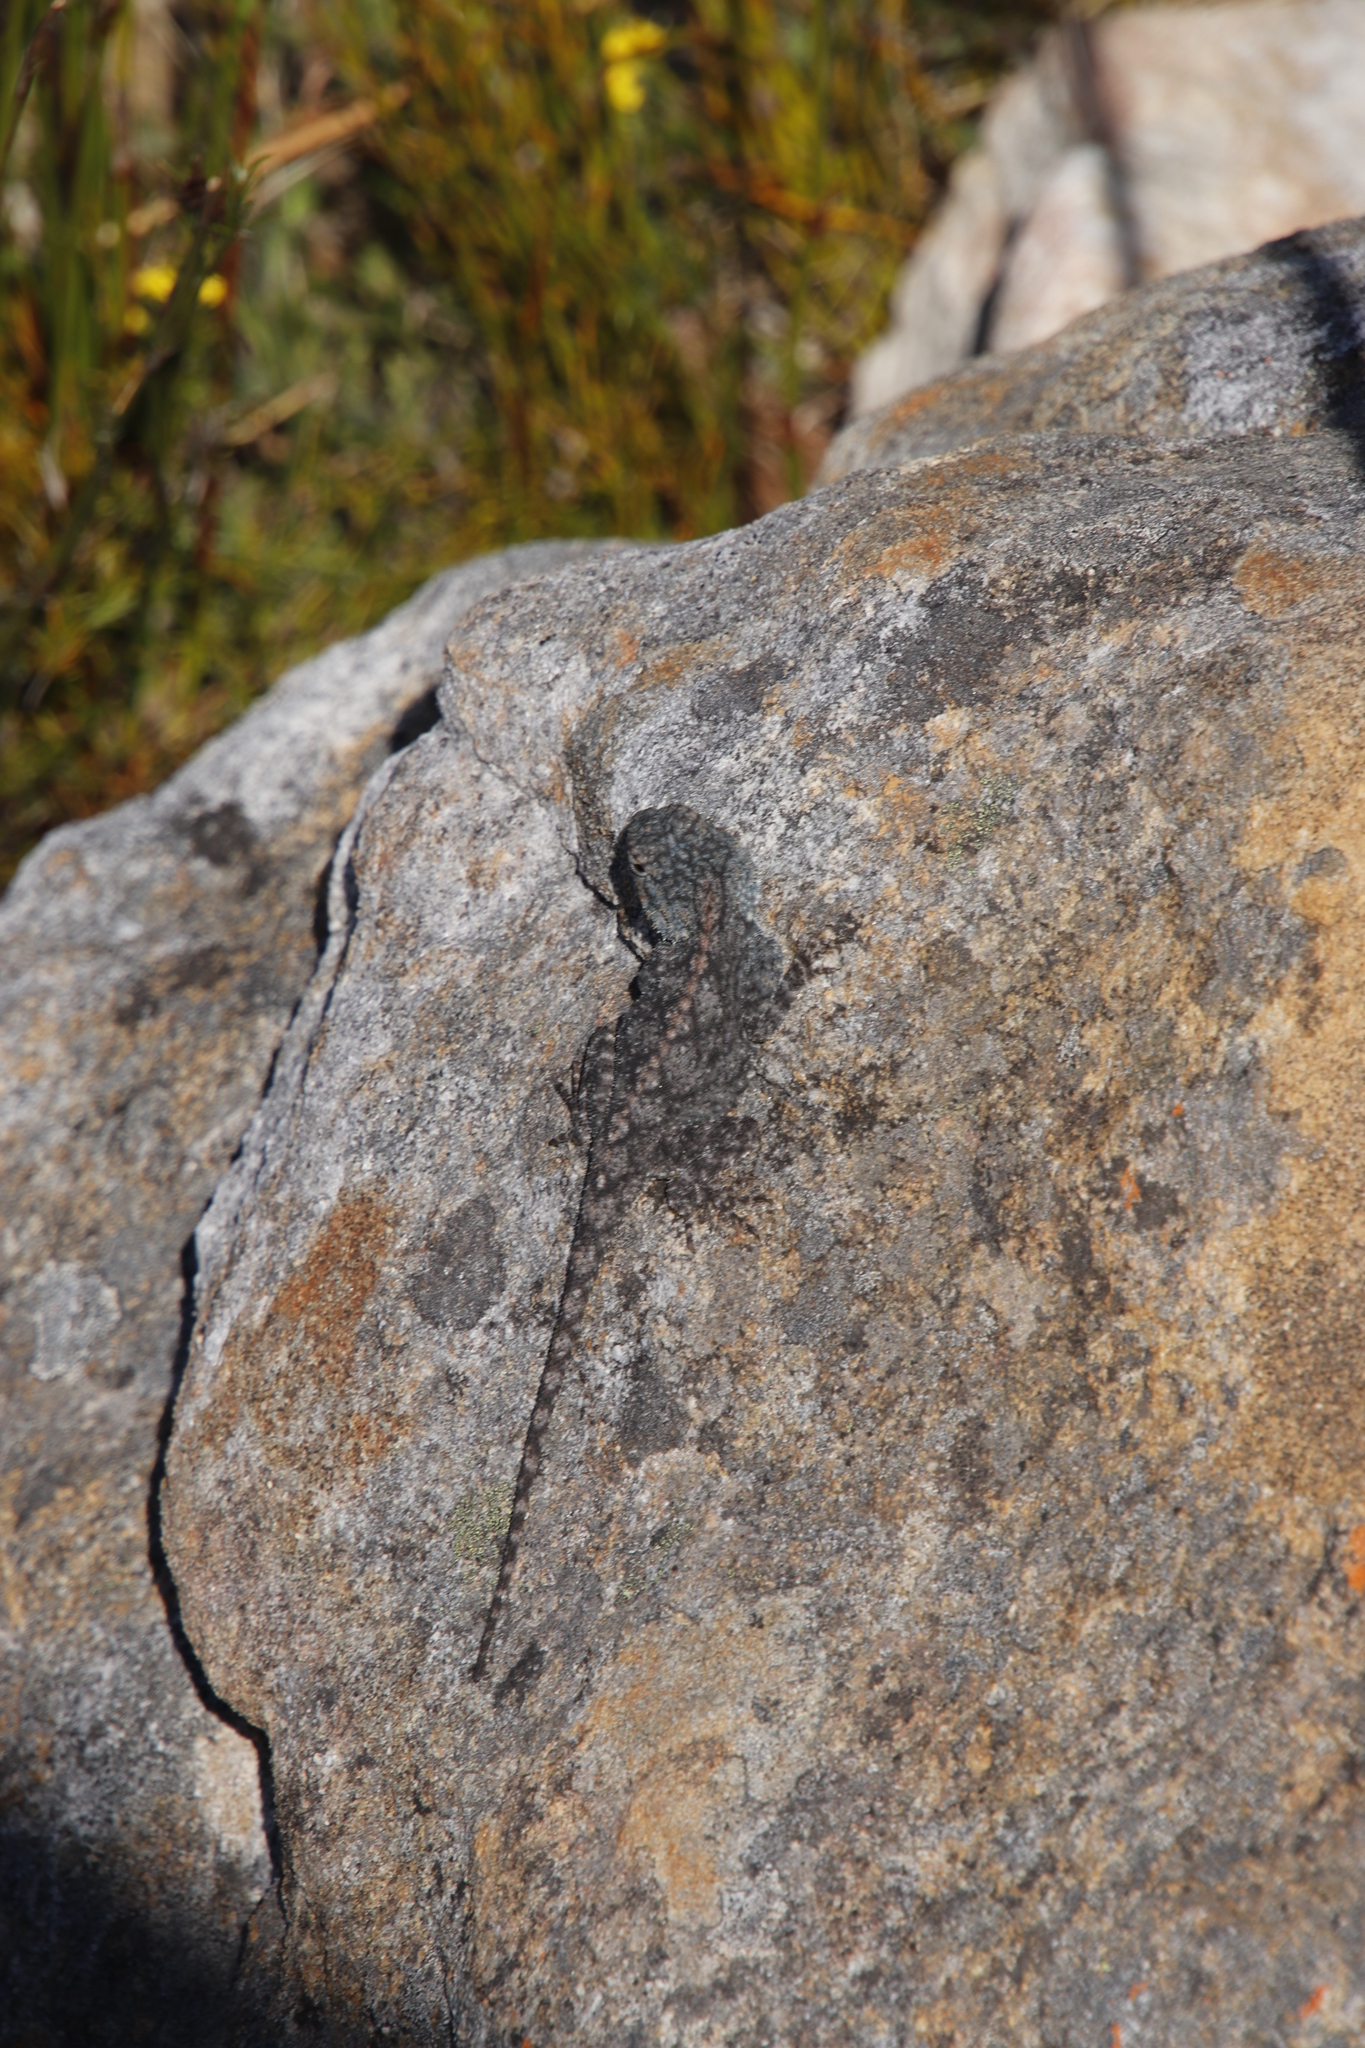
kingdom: Animalia
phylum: Chordata
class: Squamata
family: Agamidae
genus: Agama
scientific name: Agama atra
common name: Southern african rock agama
